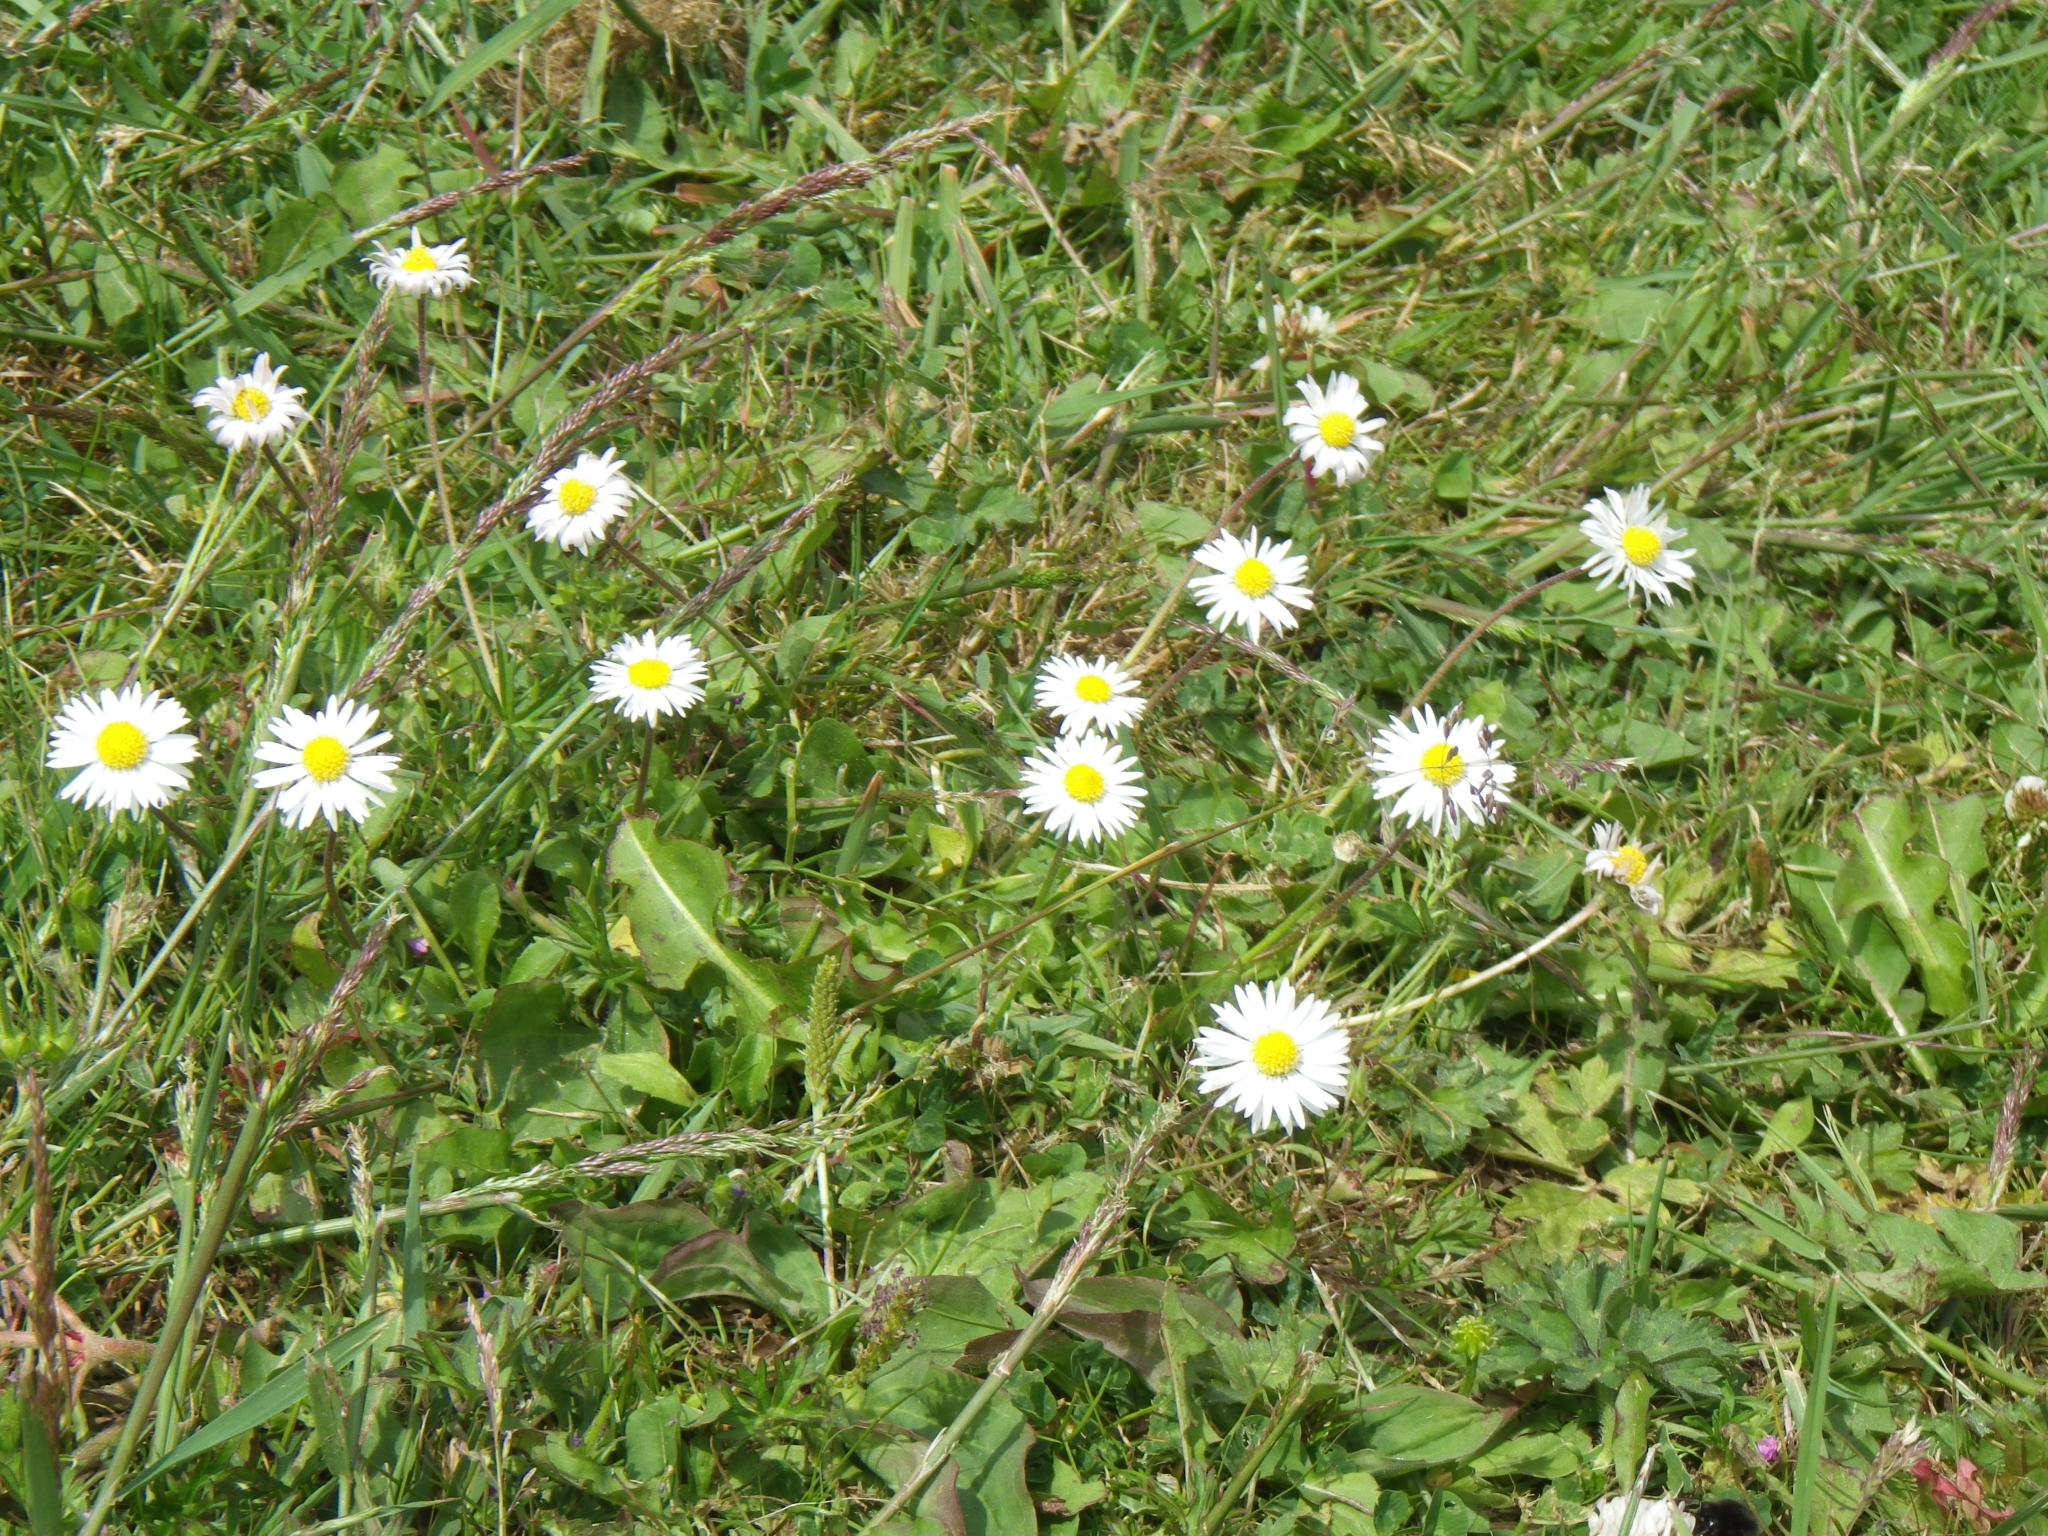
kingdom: Plantae
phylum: Tracheophyta
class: Magnoliopsida
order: Asterales
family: Asteraceae
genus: Bellis
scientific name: Bellis perennis
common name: Lawndaisy
